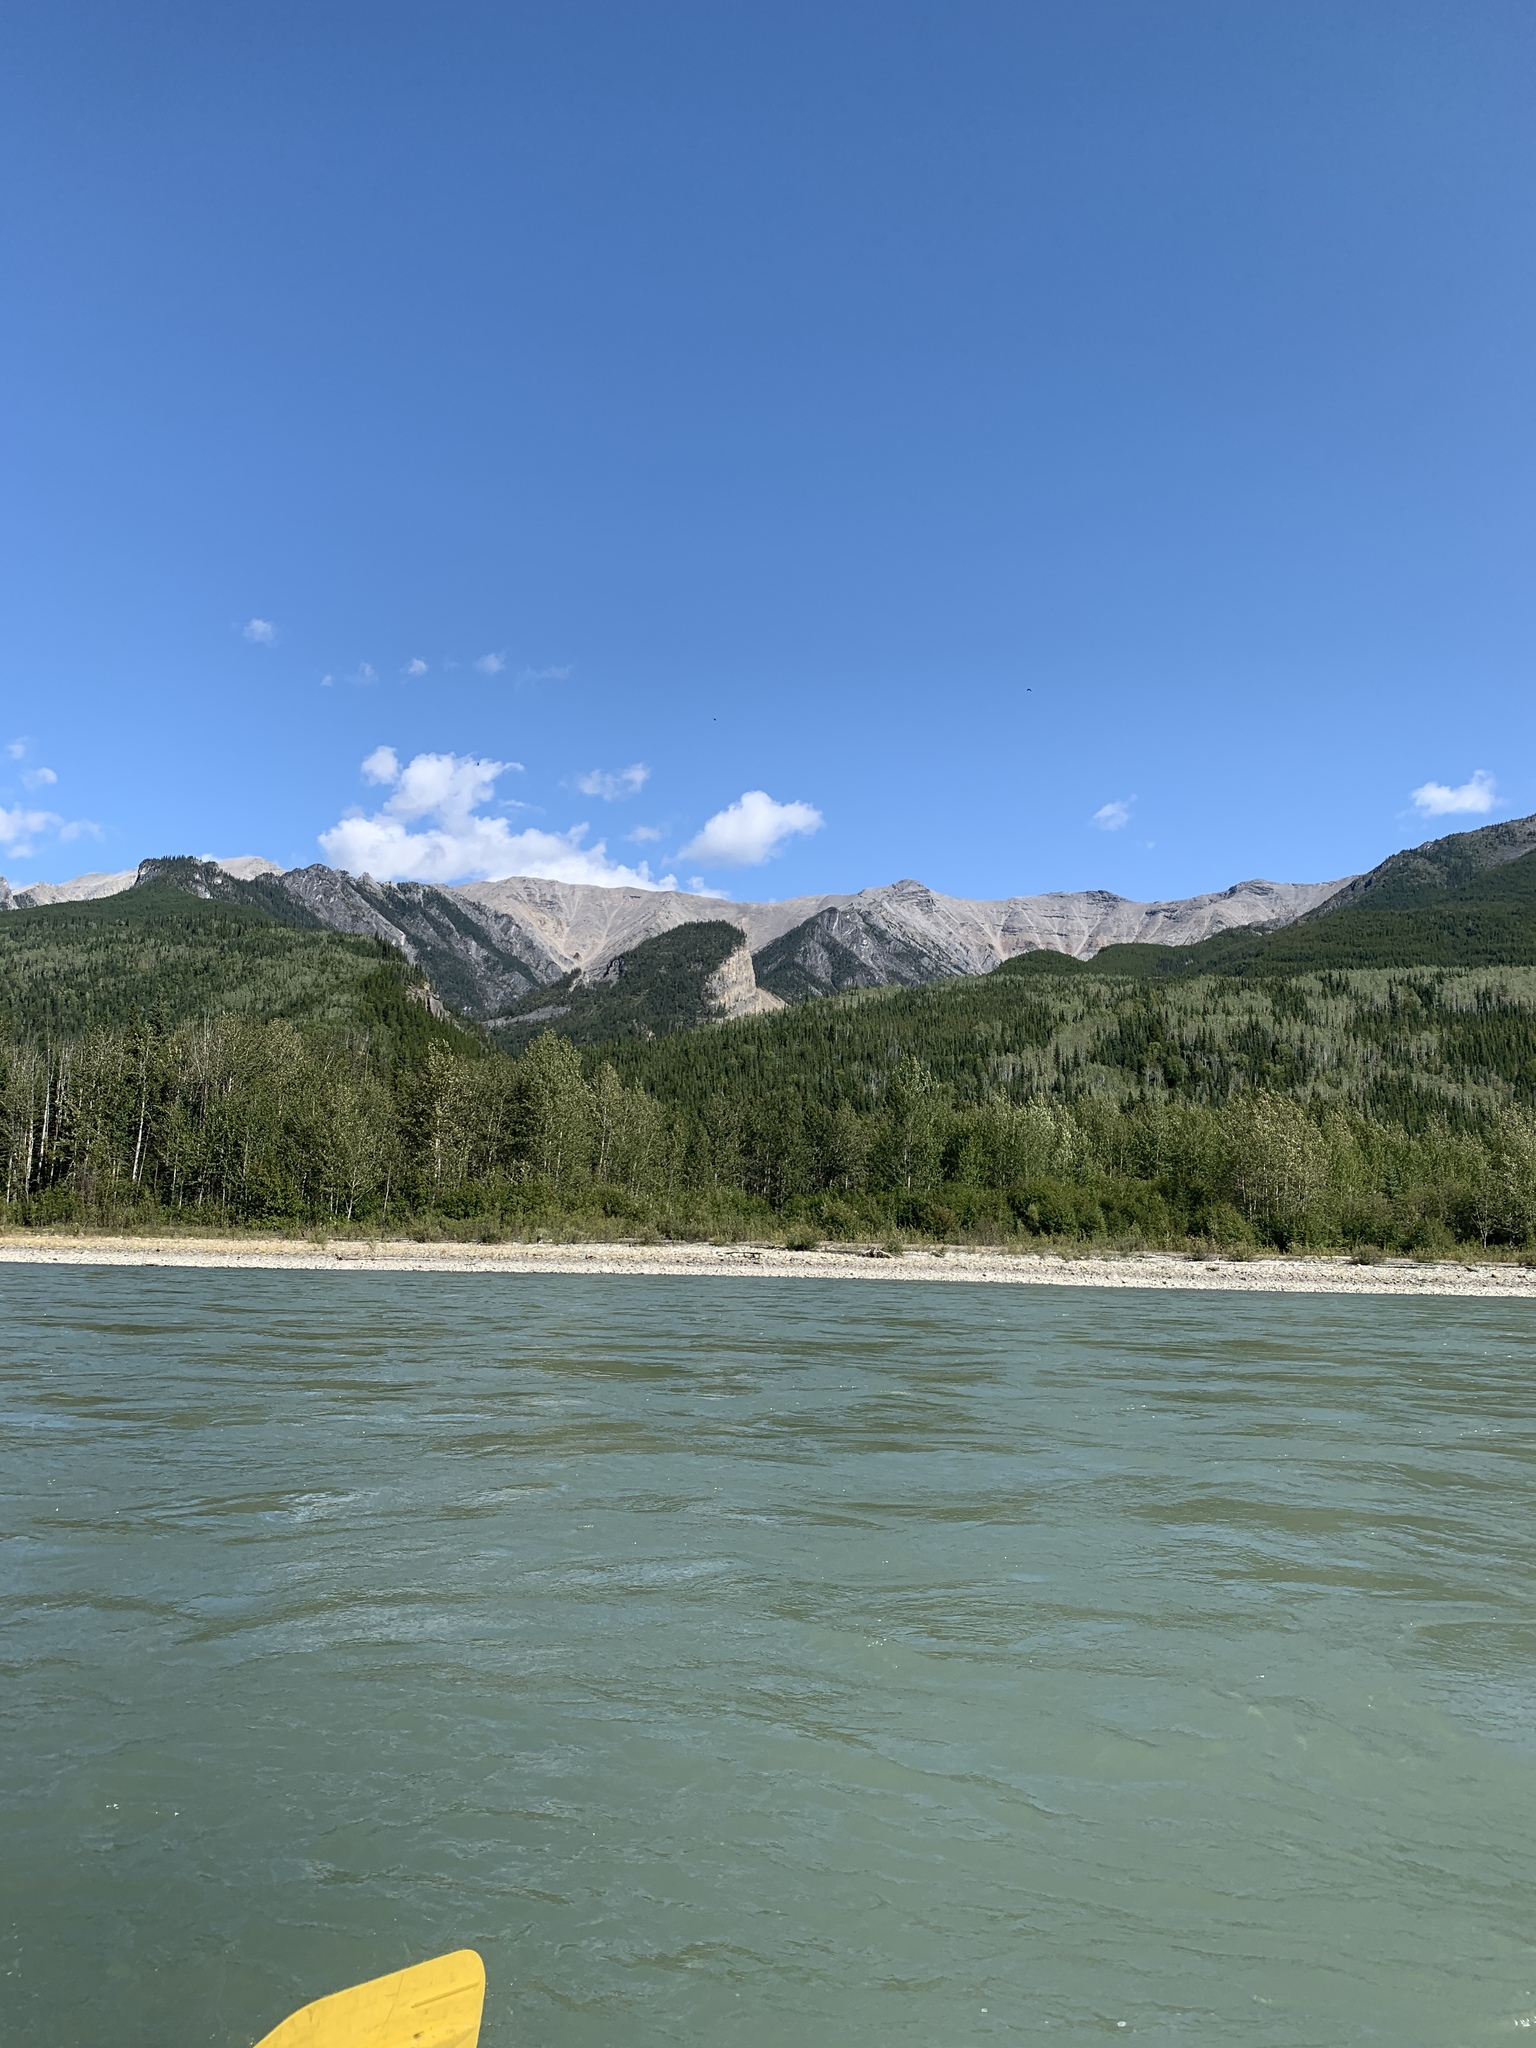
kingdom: Animalia
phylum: Chordata
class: Aves
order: Caprimulgiformes
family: Caprimulgidae
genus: Chordeiles
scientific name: Chordeiles minor
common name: Common nighthawk
